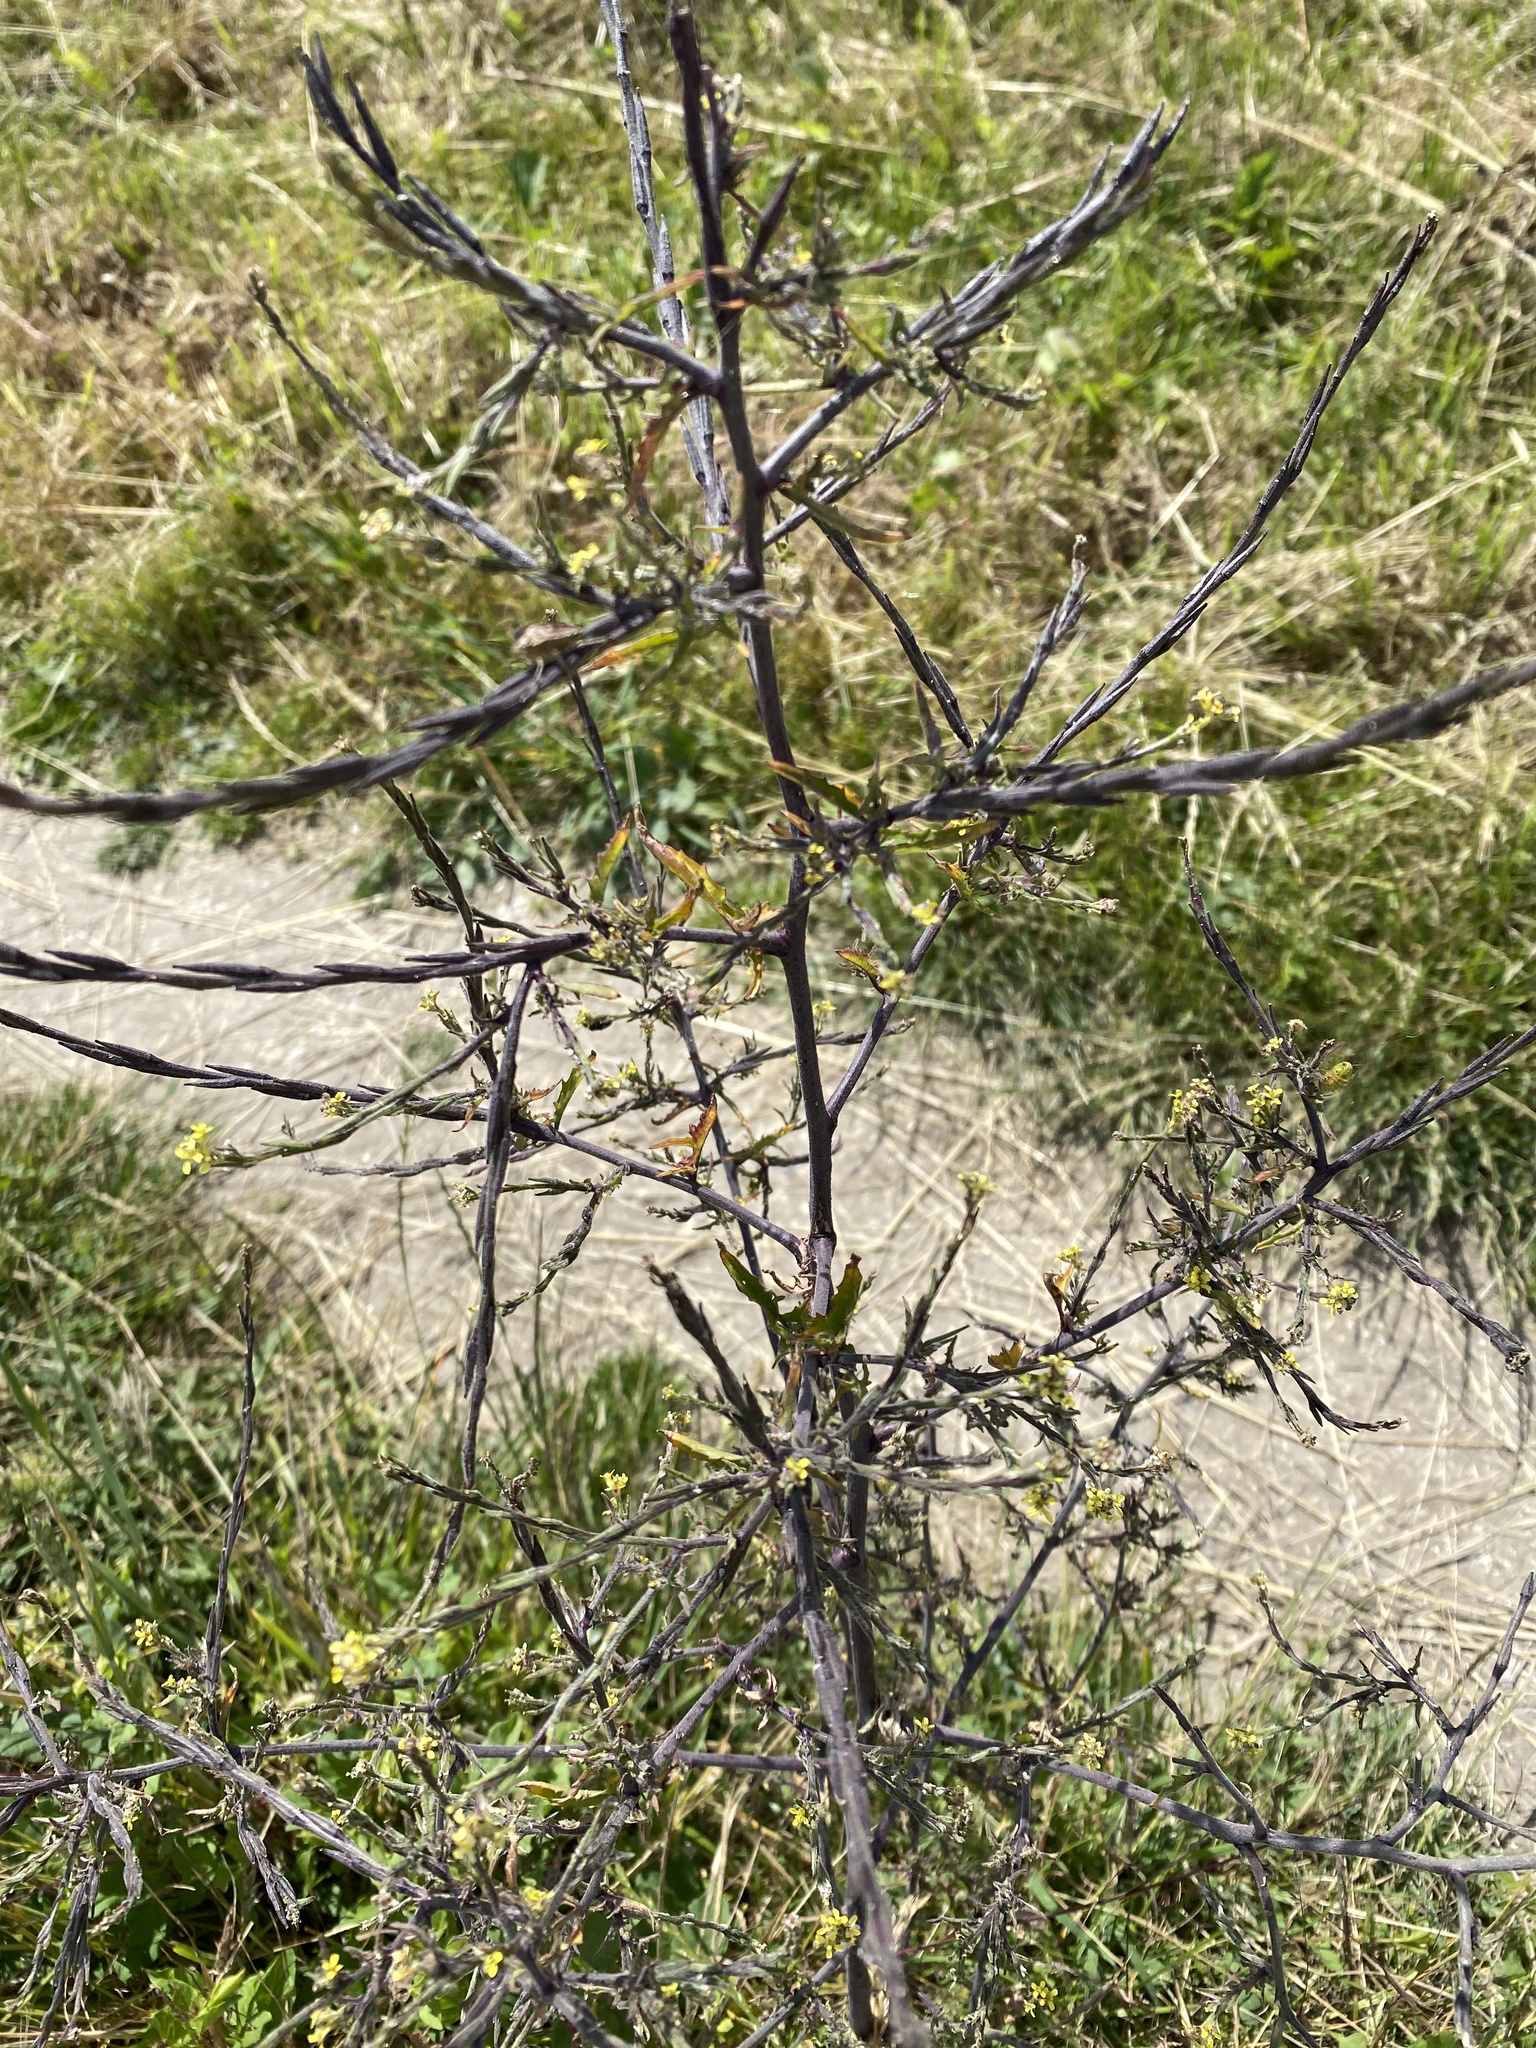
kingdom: Plantae
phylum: Tracheophyta
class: Magnoliopsida
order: Brassicales
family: Brassicaceae
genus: Sisymbrium
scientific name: Sisymbrium officinale
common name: Hedge mustard
